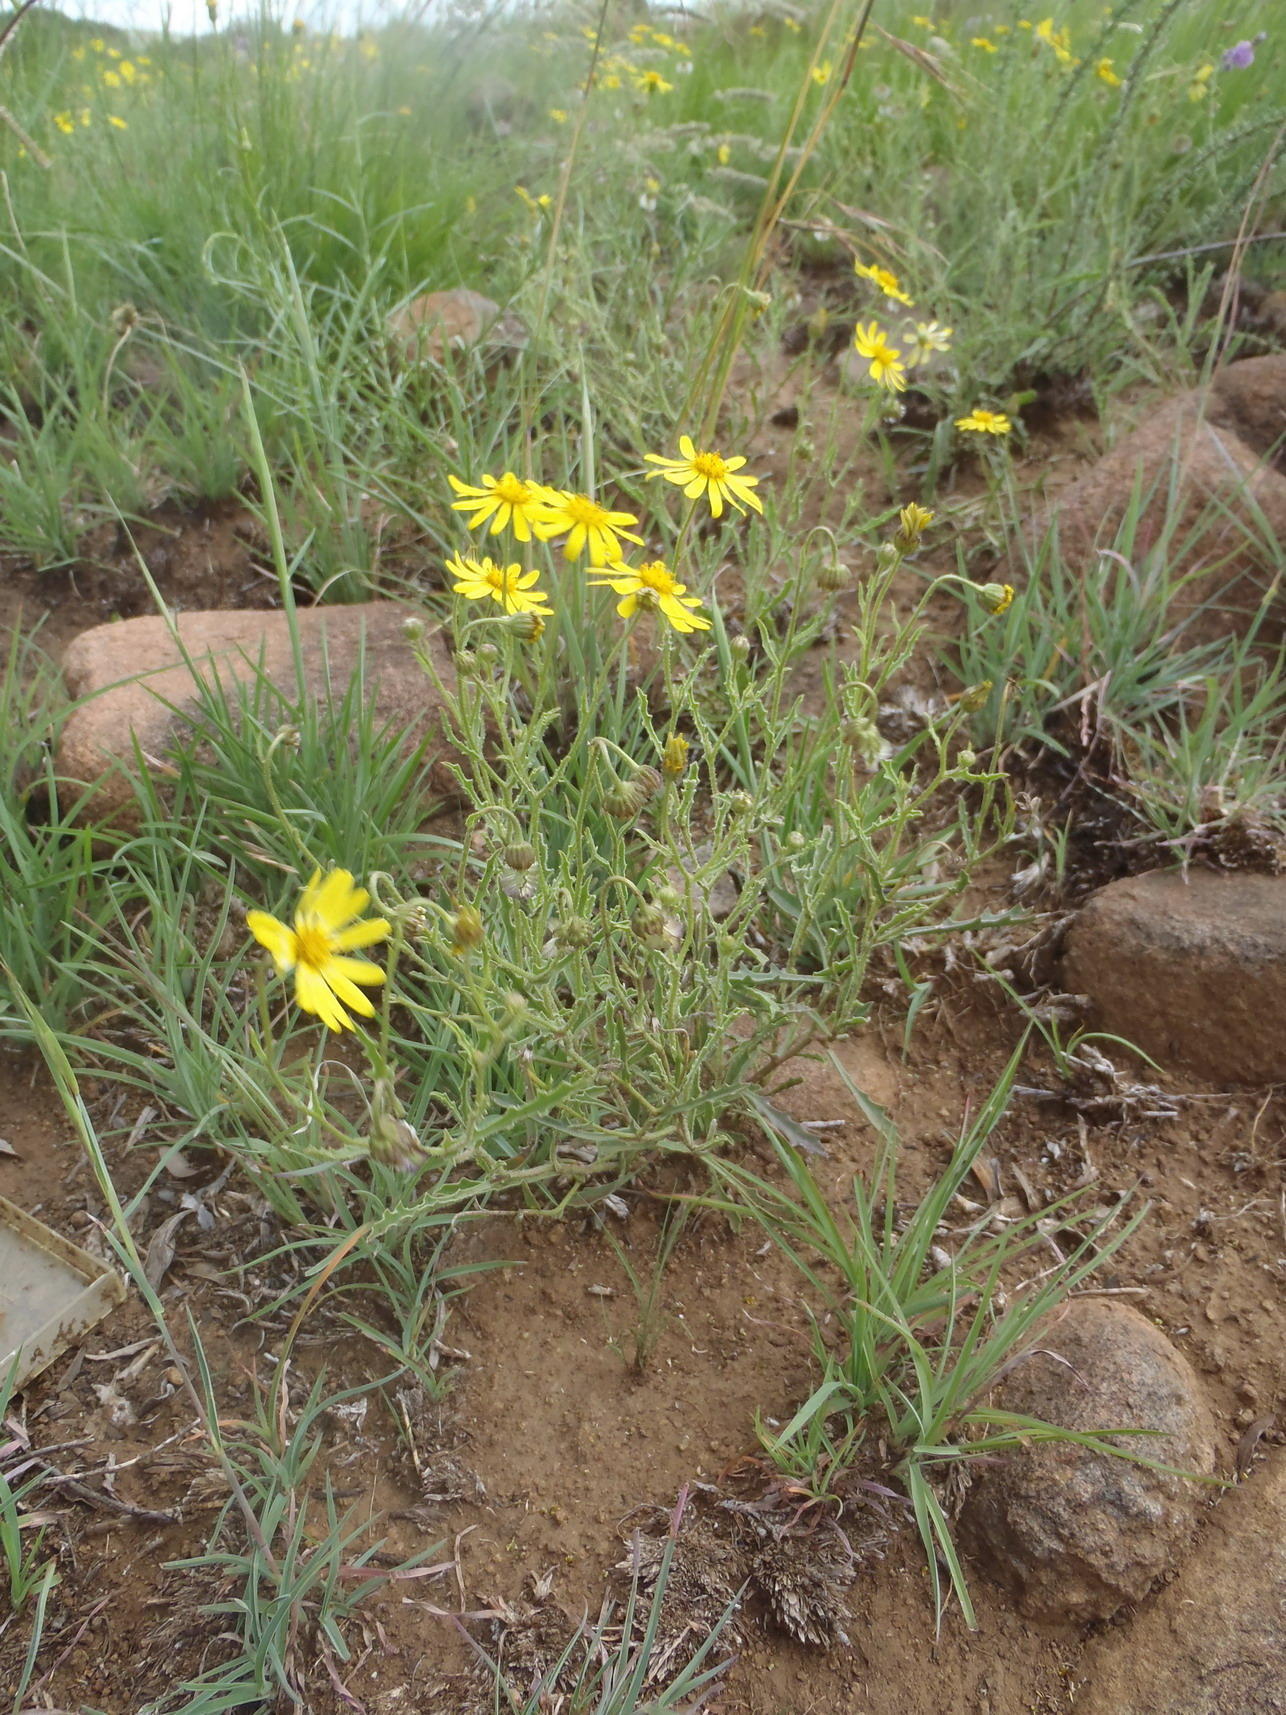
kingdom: Plantae
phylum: Tracheophyta
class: Magnoliopsida
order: Asterales
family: Asteraceae
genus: Osteospermum
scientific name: Osteospermum scariosum
